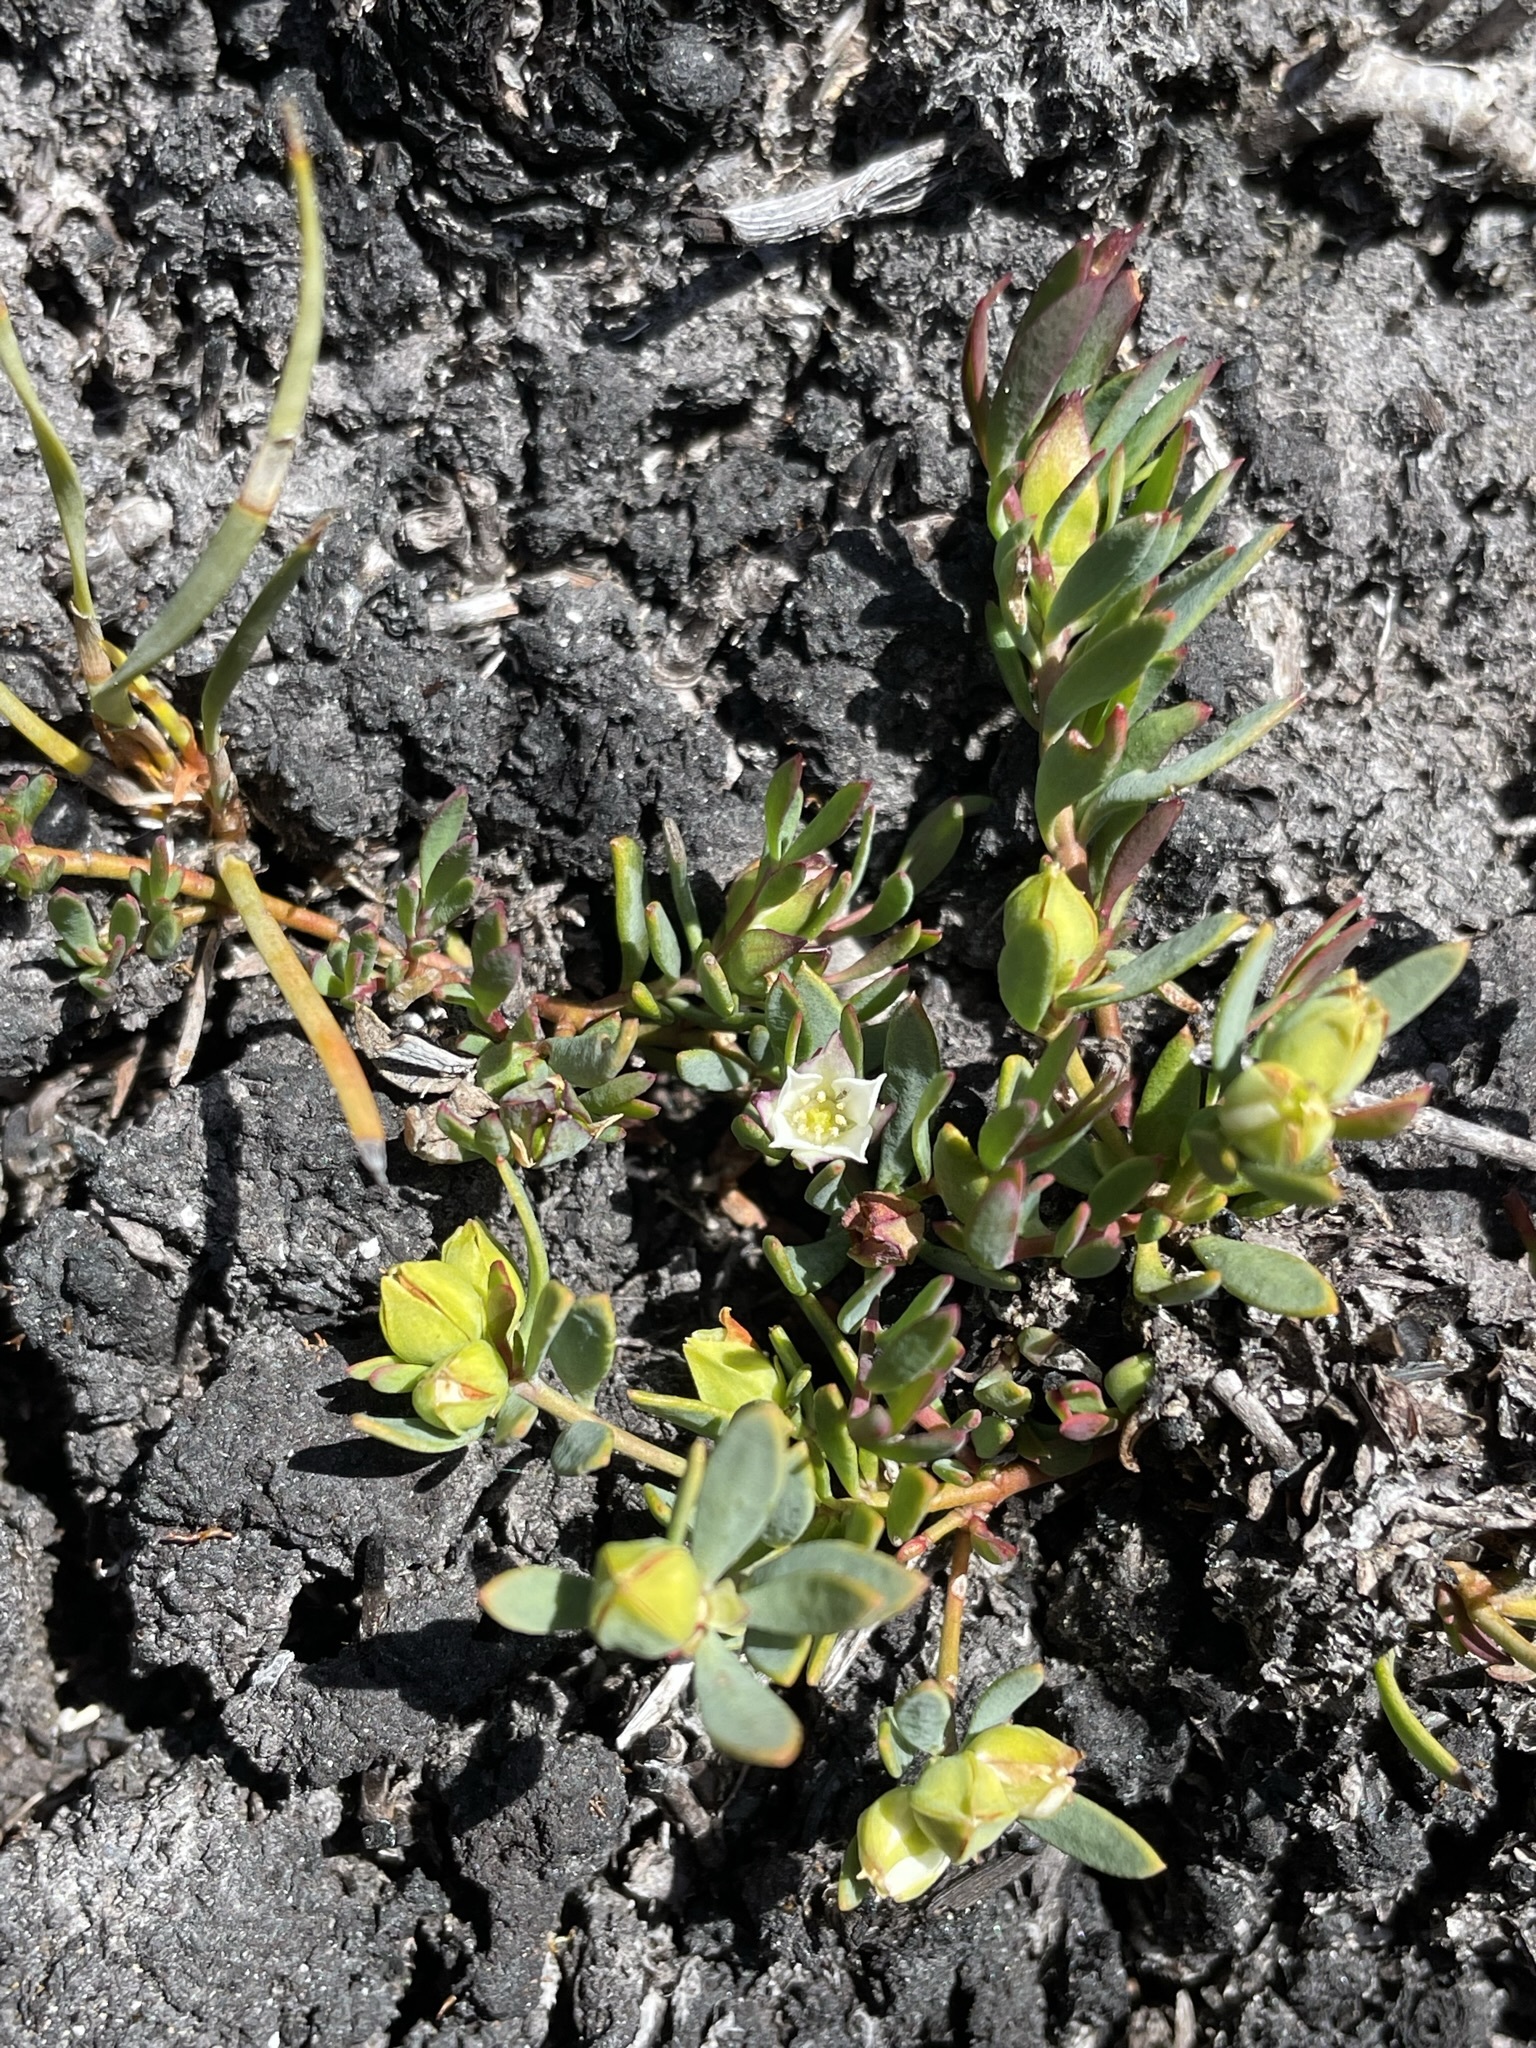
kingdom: Plantae
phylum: Tracheophyta
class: Magnoliopsida
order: Sapindales
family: Rutaceae
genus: Boronia
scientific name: Boronia parviflora
